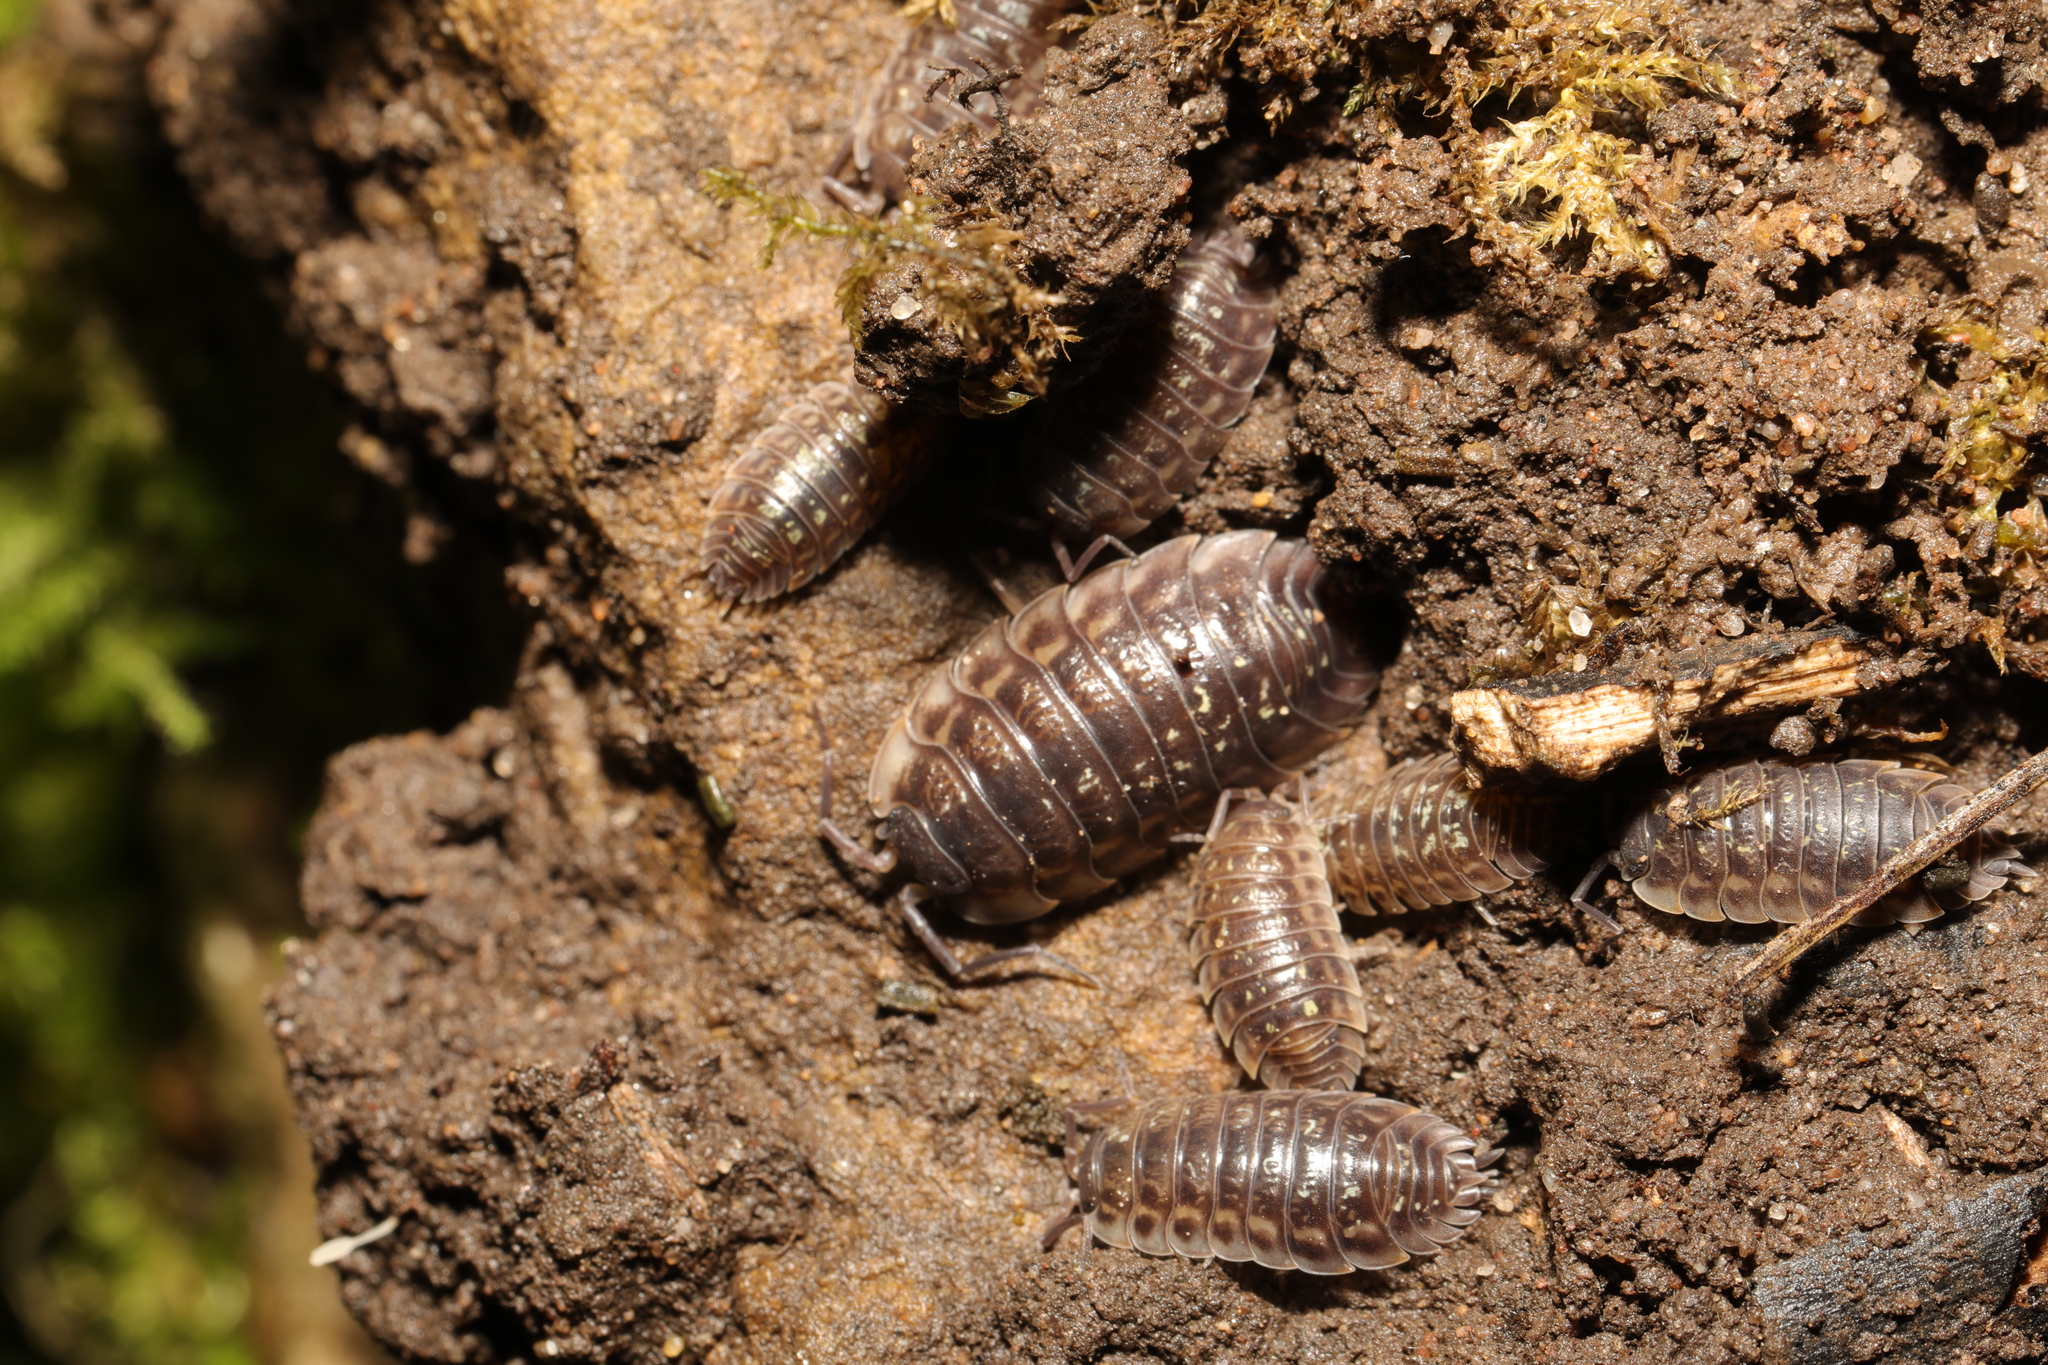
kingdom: Animalia
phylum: Arthropoda
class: Malacostraca
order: Isopoda
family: Oniscidae
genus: Oniscus
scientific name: Oniscus asellus
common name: Common shiny woodlouse
